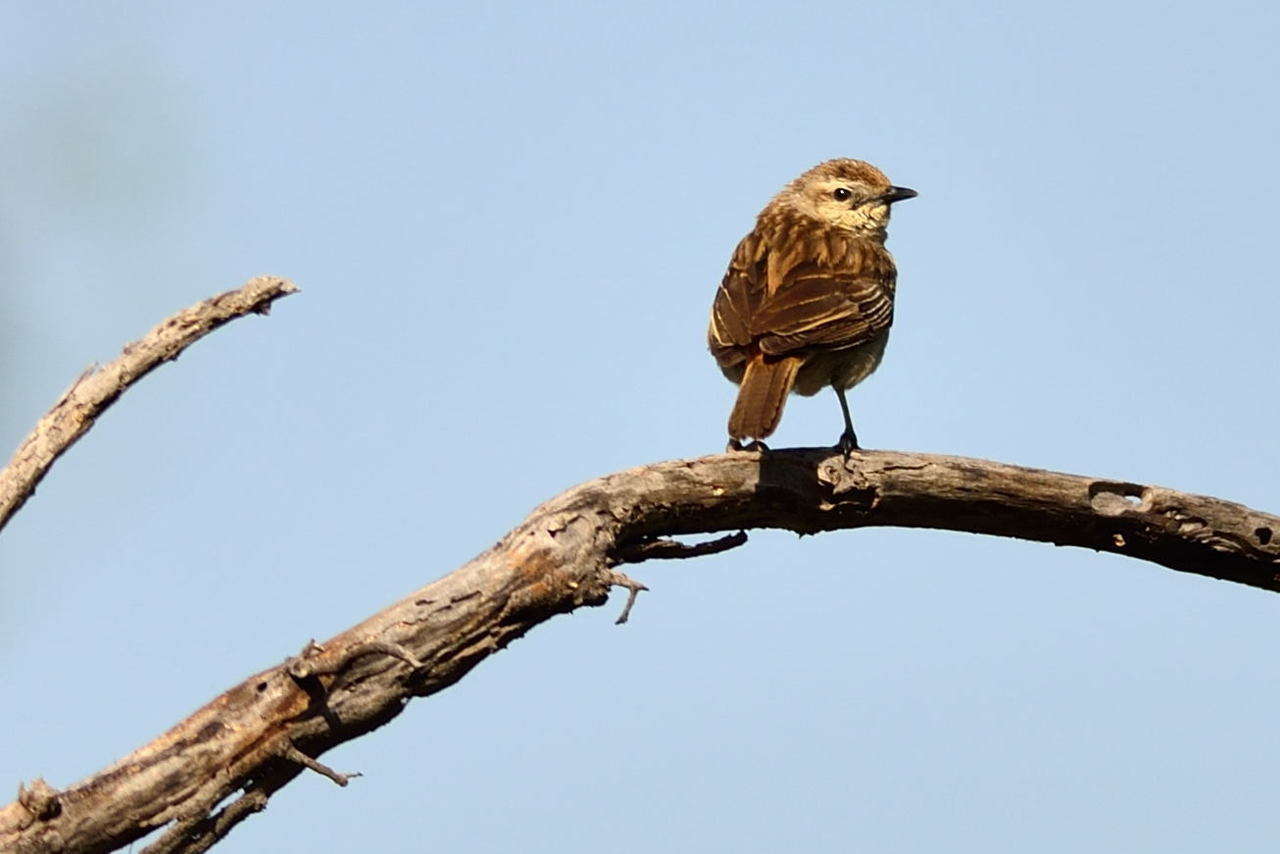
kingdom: Animalia
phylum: Chordata
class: Aves
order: Passeriformes
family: Locustellidae
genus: Megalurus
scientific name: Megalurus mathewsi
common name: Rufous songlark
